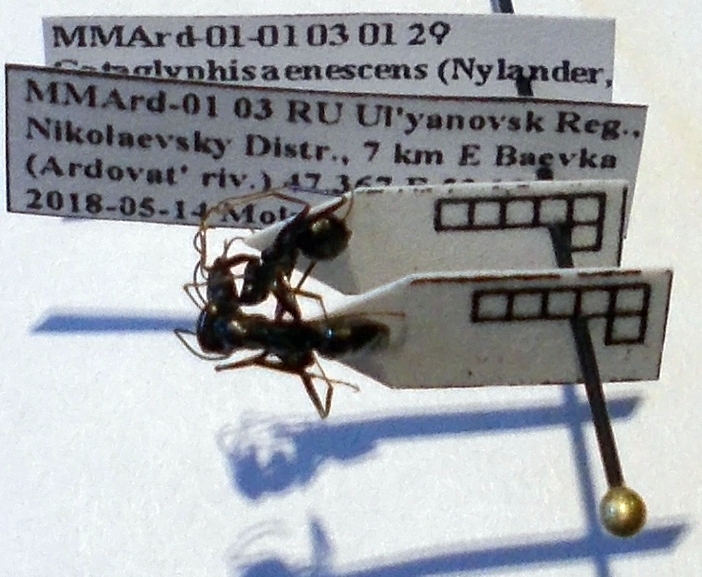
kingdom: Animalia
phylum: Arthropoda
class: Insecta
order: Hymenoptera
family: Formicidae
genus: Cataglyphis
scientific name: Cataglyphis aenescens
